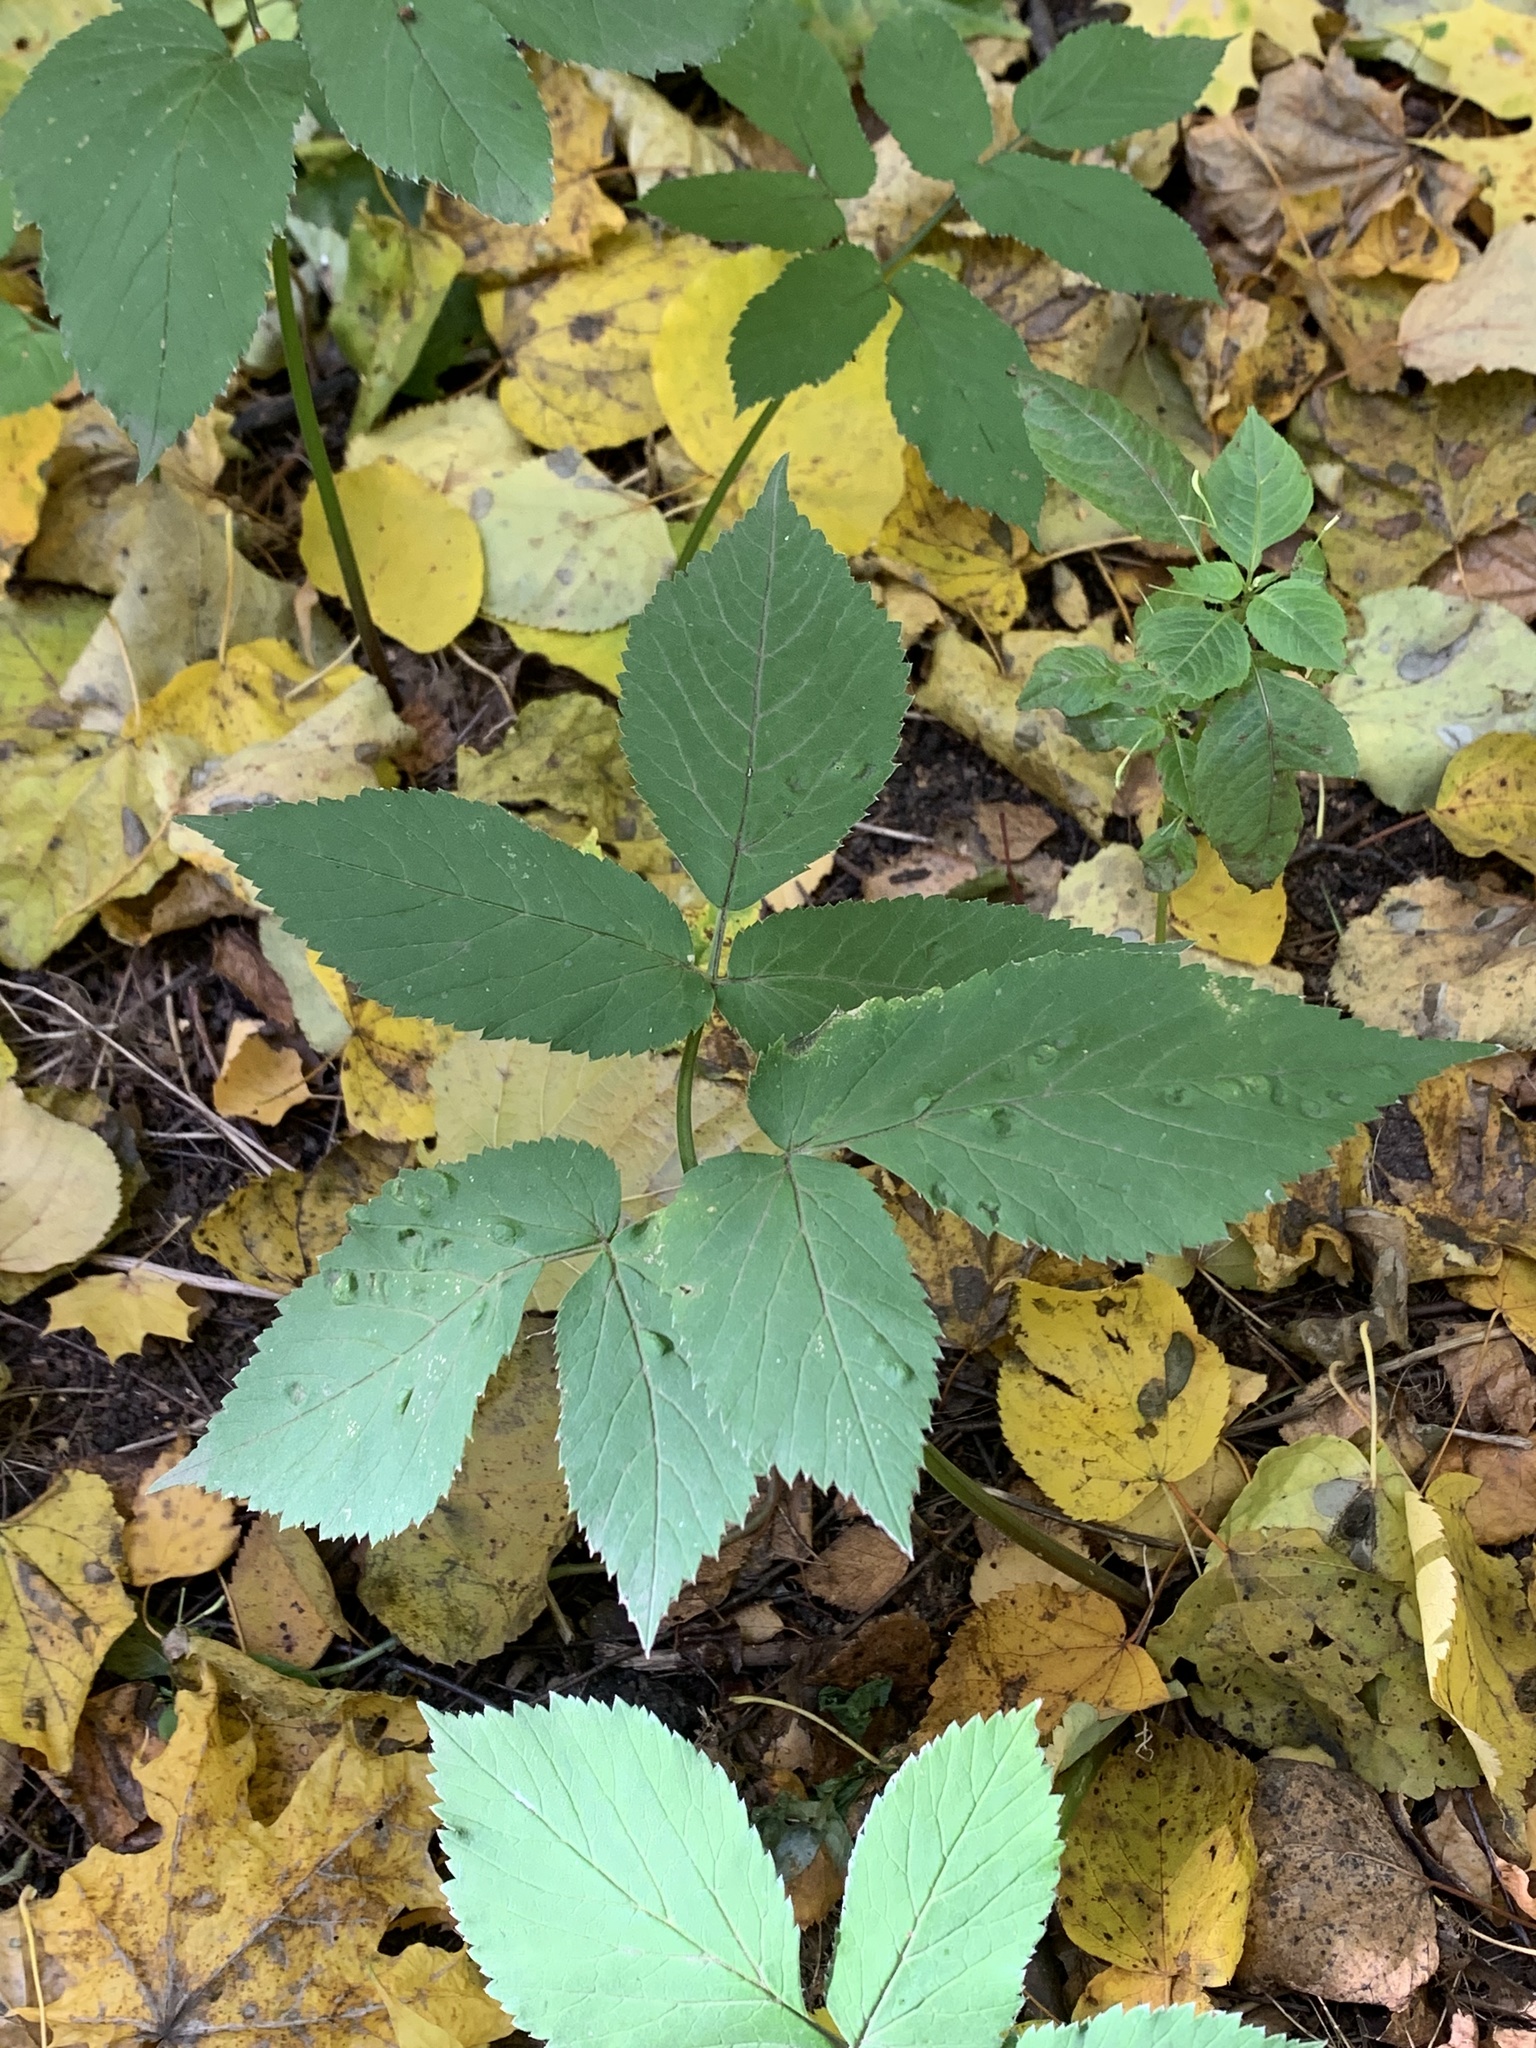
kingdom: Plantae
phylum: Tracheophyta
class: Magnoliopsida
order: Apiales
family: Apiaceae
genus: Aegopodium
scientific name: Aegopodium podagraria
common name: Ground-elder
